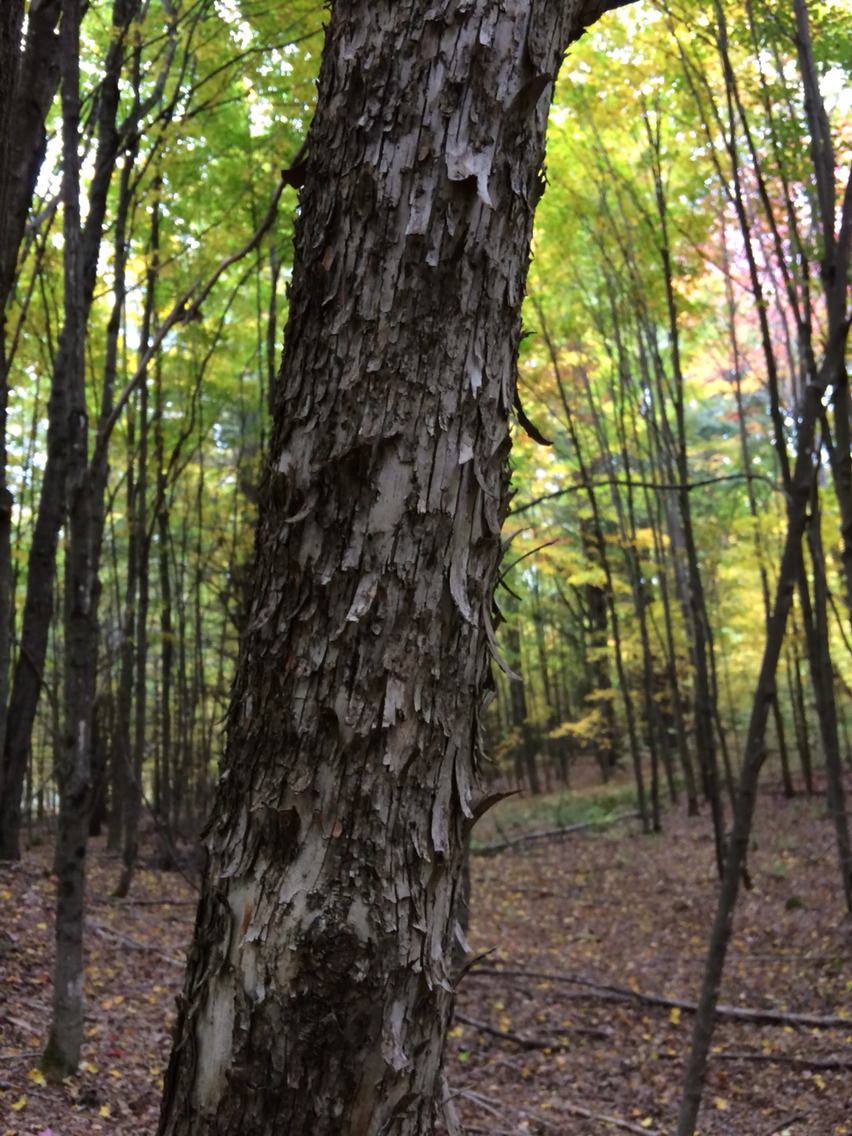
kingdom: Plantae
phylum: Tracheophyta
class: Magnoliopsida
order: Fagales
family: Betulaceae
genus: Ostrya
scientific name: Ostrya virginiana
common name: Ironwood
